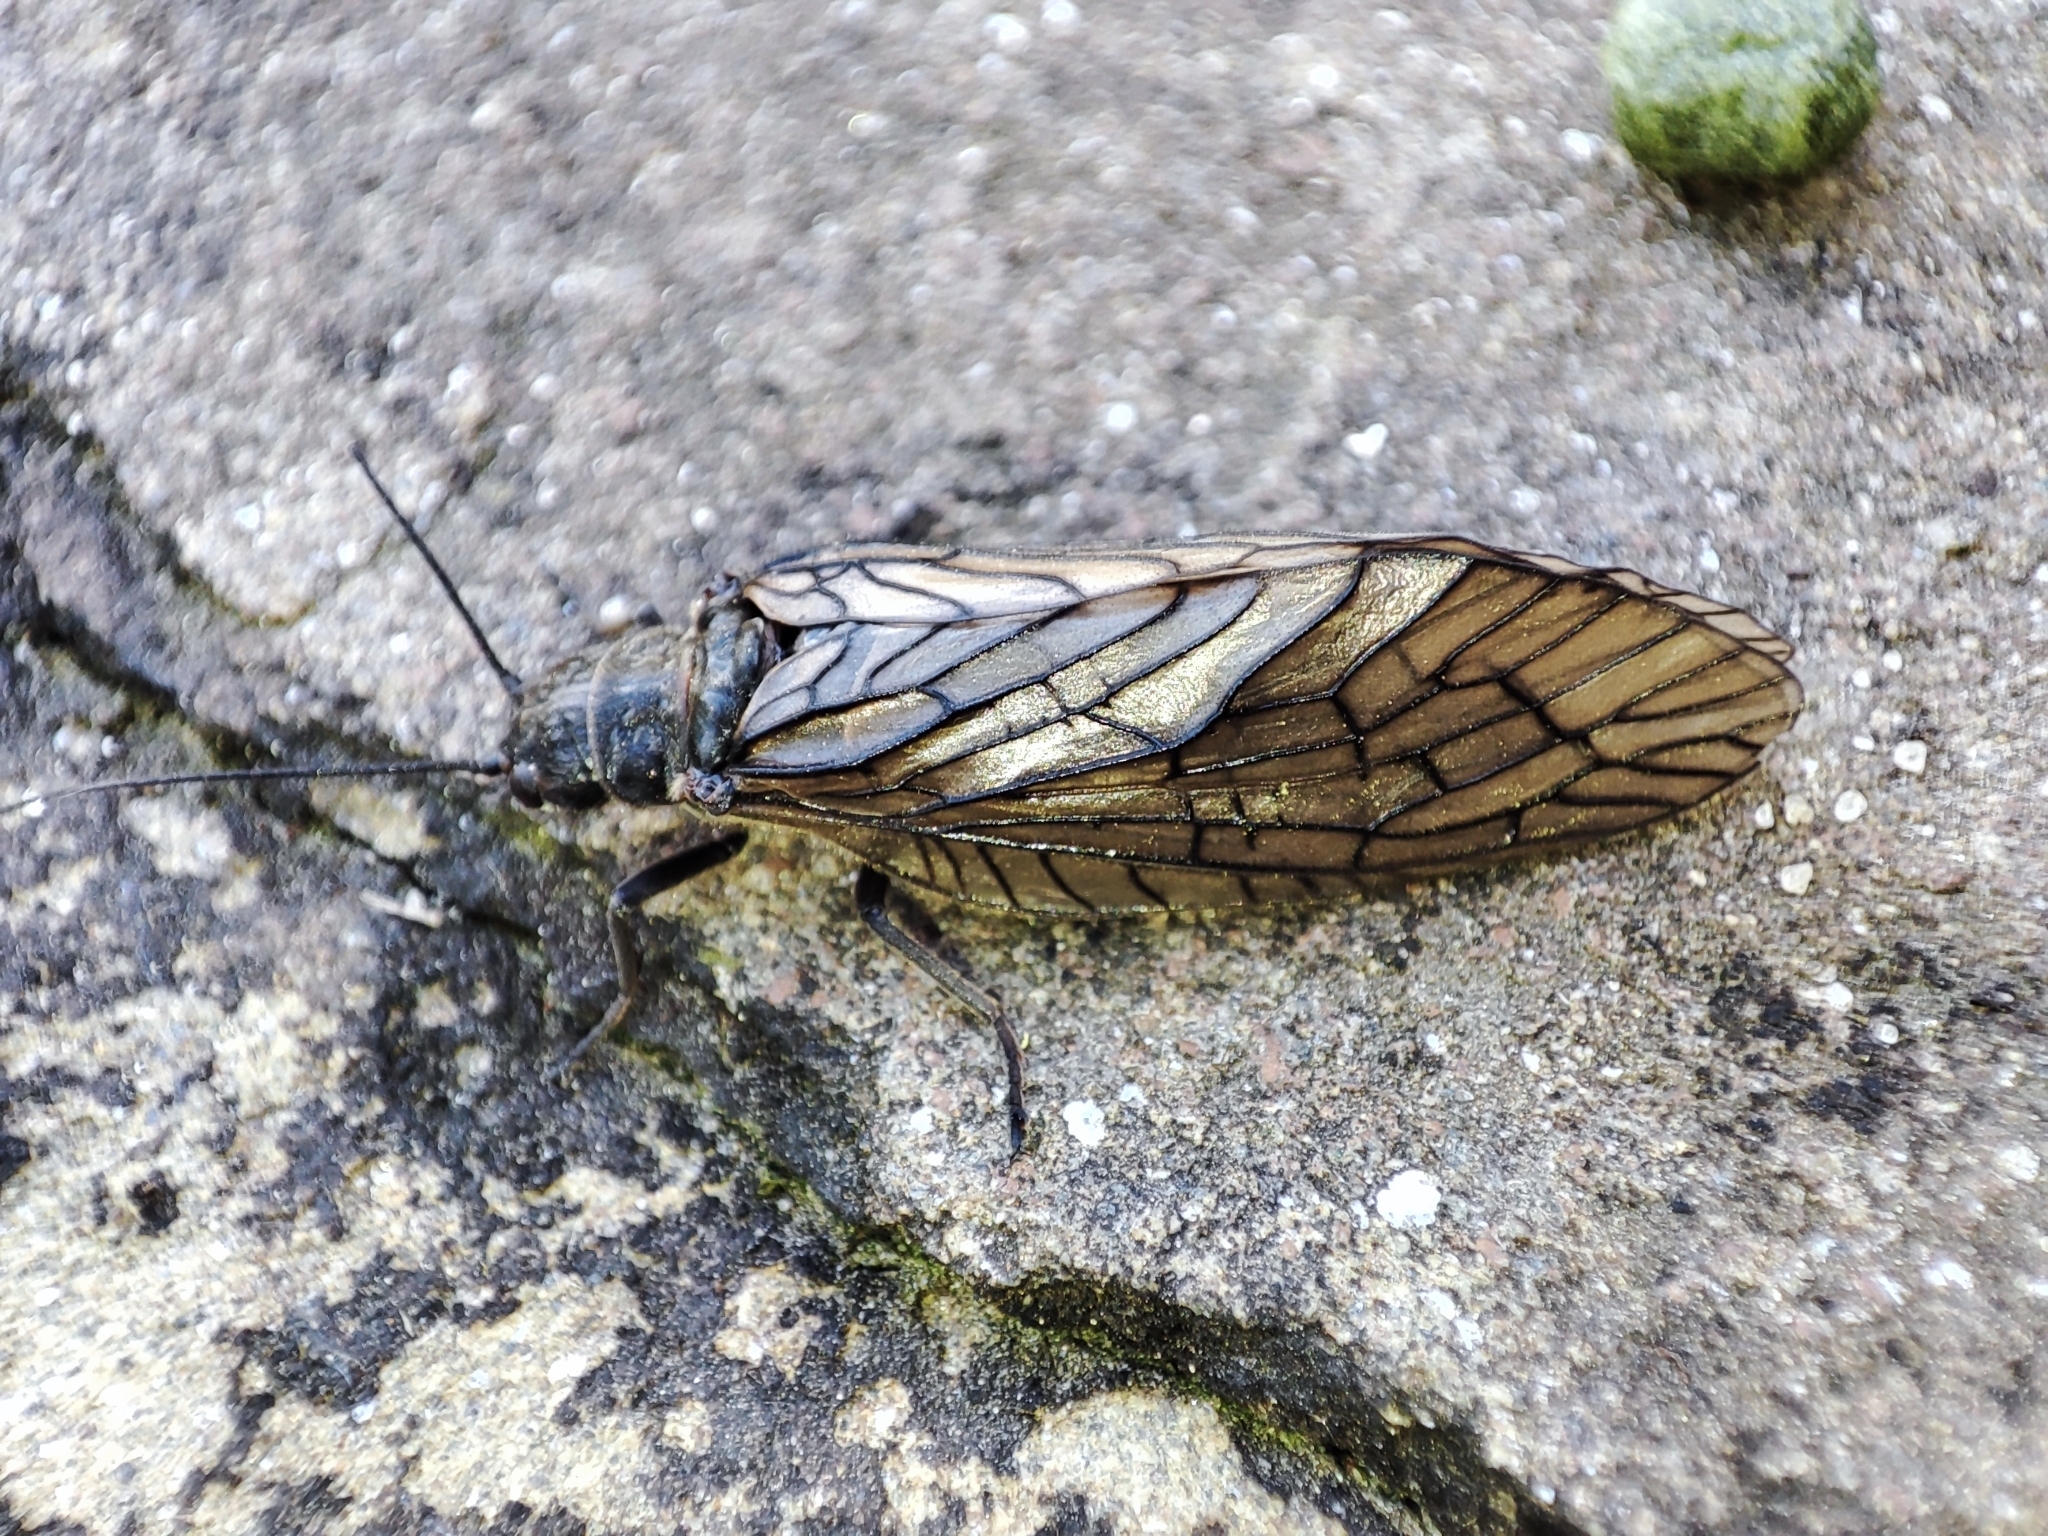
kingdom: Animalia
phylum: Arthropoda
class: Insecta
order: Megaloptera
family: Sialidae
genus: Sialis
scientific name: Sialis
